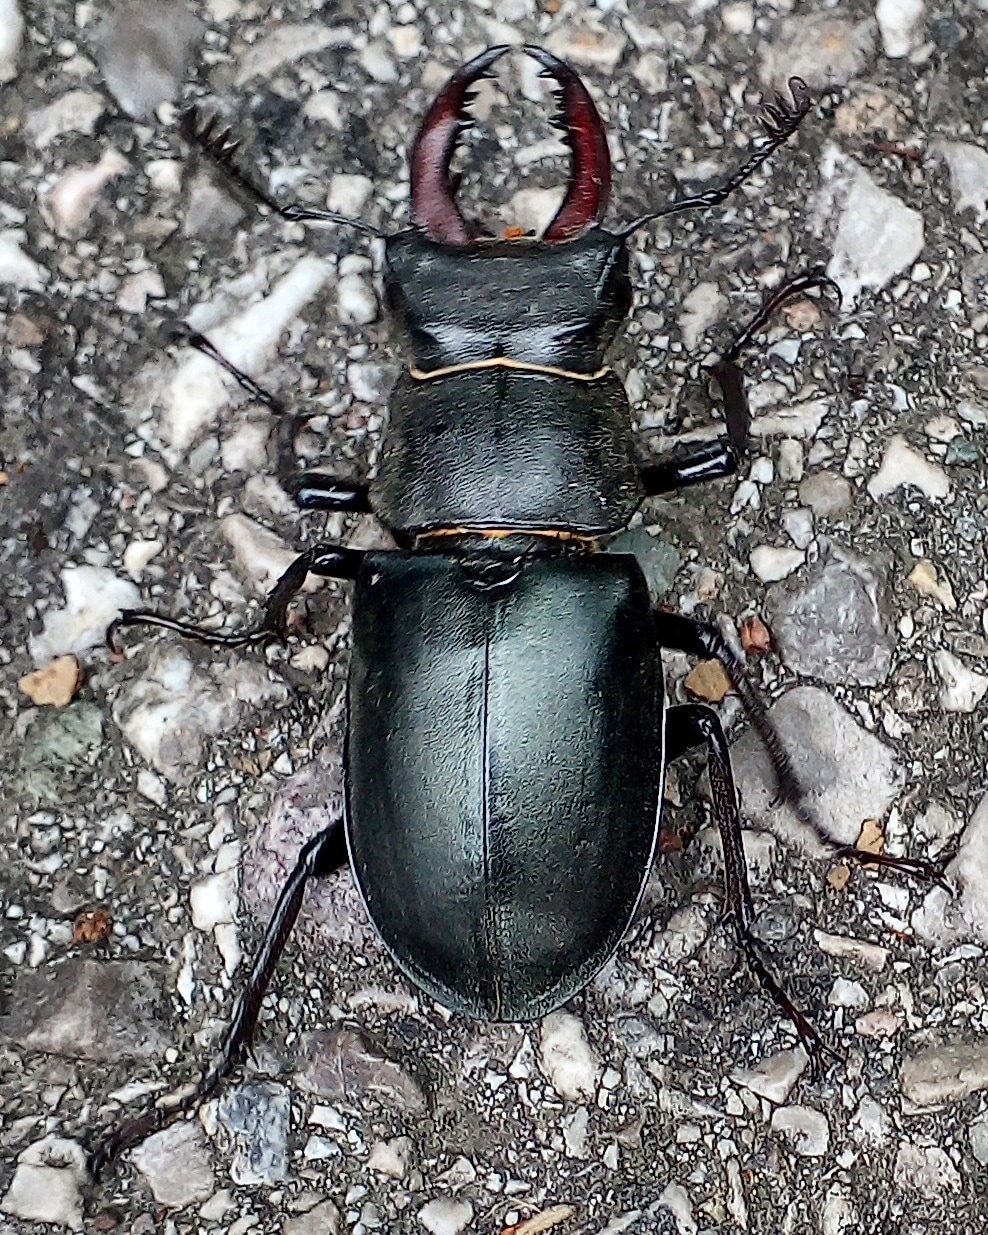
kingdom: Animalia
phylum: Arthropoda
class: Insecta
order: Coleoptera
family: Lucanidae
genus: Lucanus
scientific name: Lucanus cervus
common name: Stag beetle
